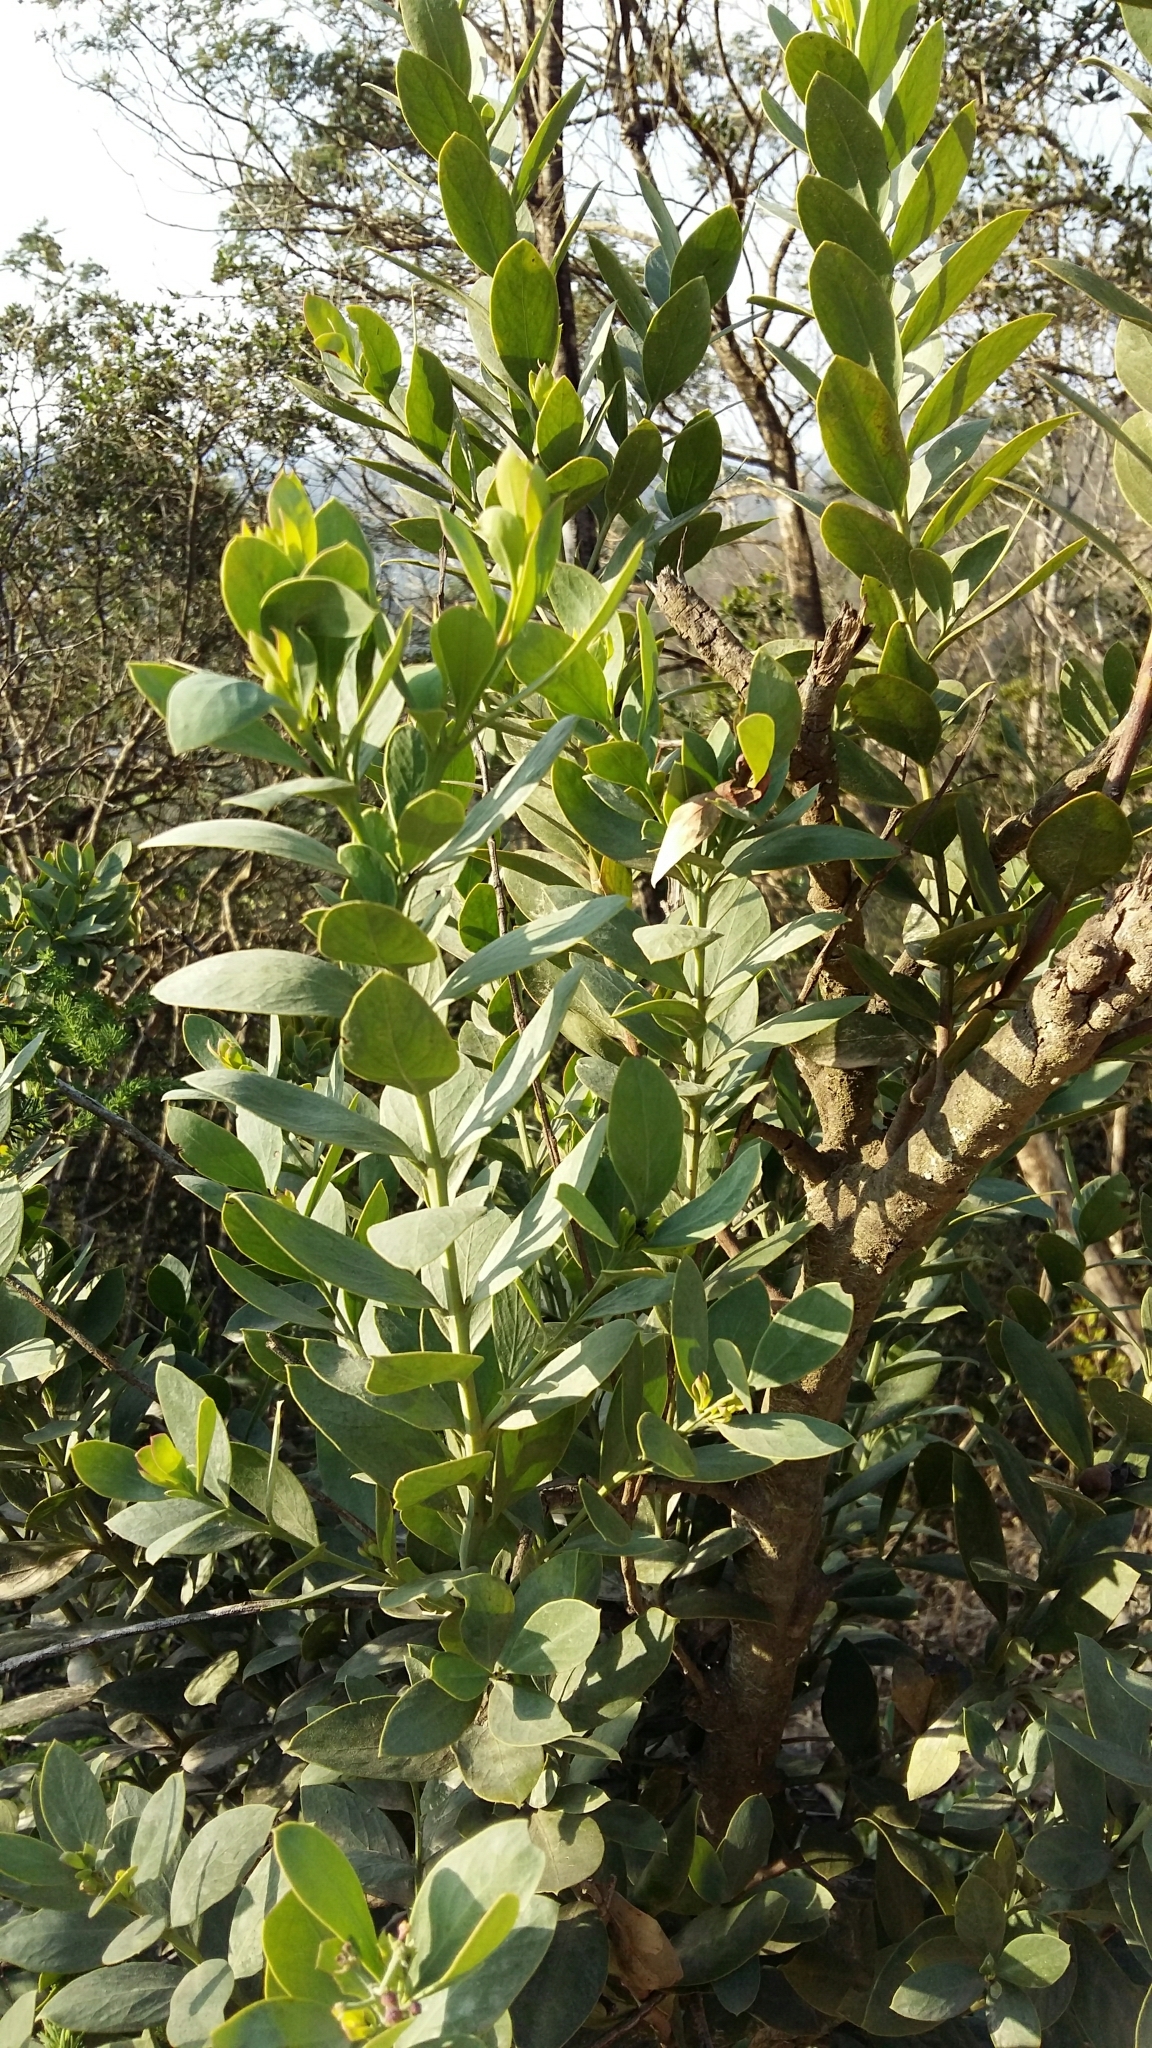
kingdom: Plantae
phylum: Tracheophyta
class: Magnoliopsida
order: Santalales
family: Santalaceae
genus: Osyris
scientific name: Osyris compressa
